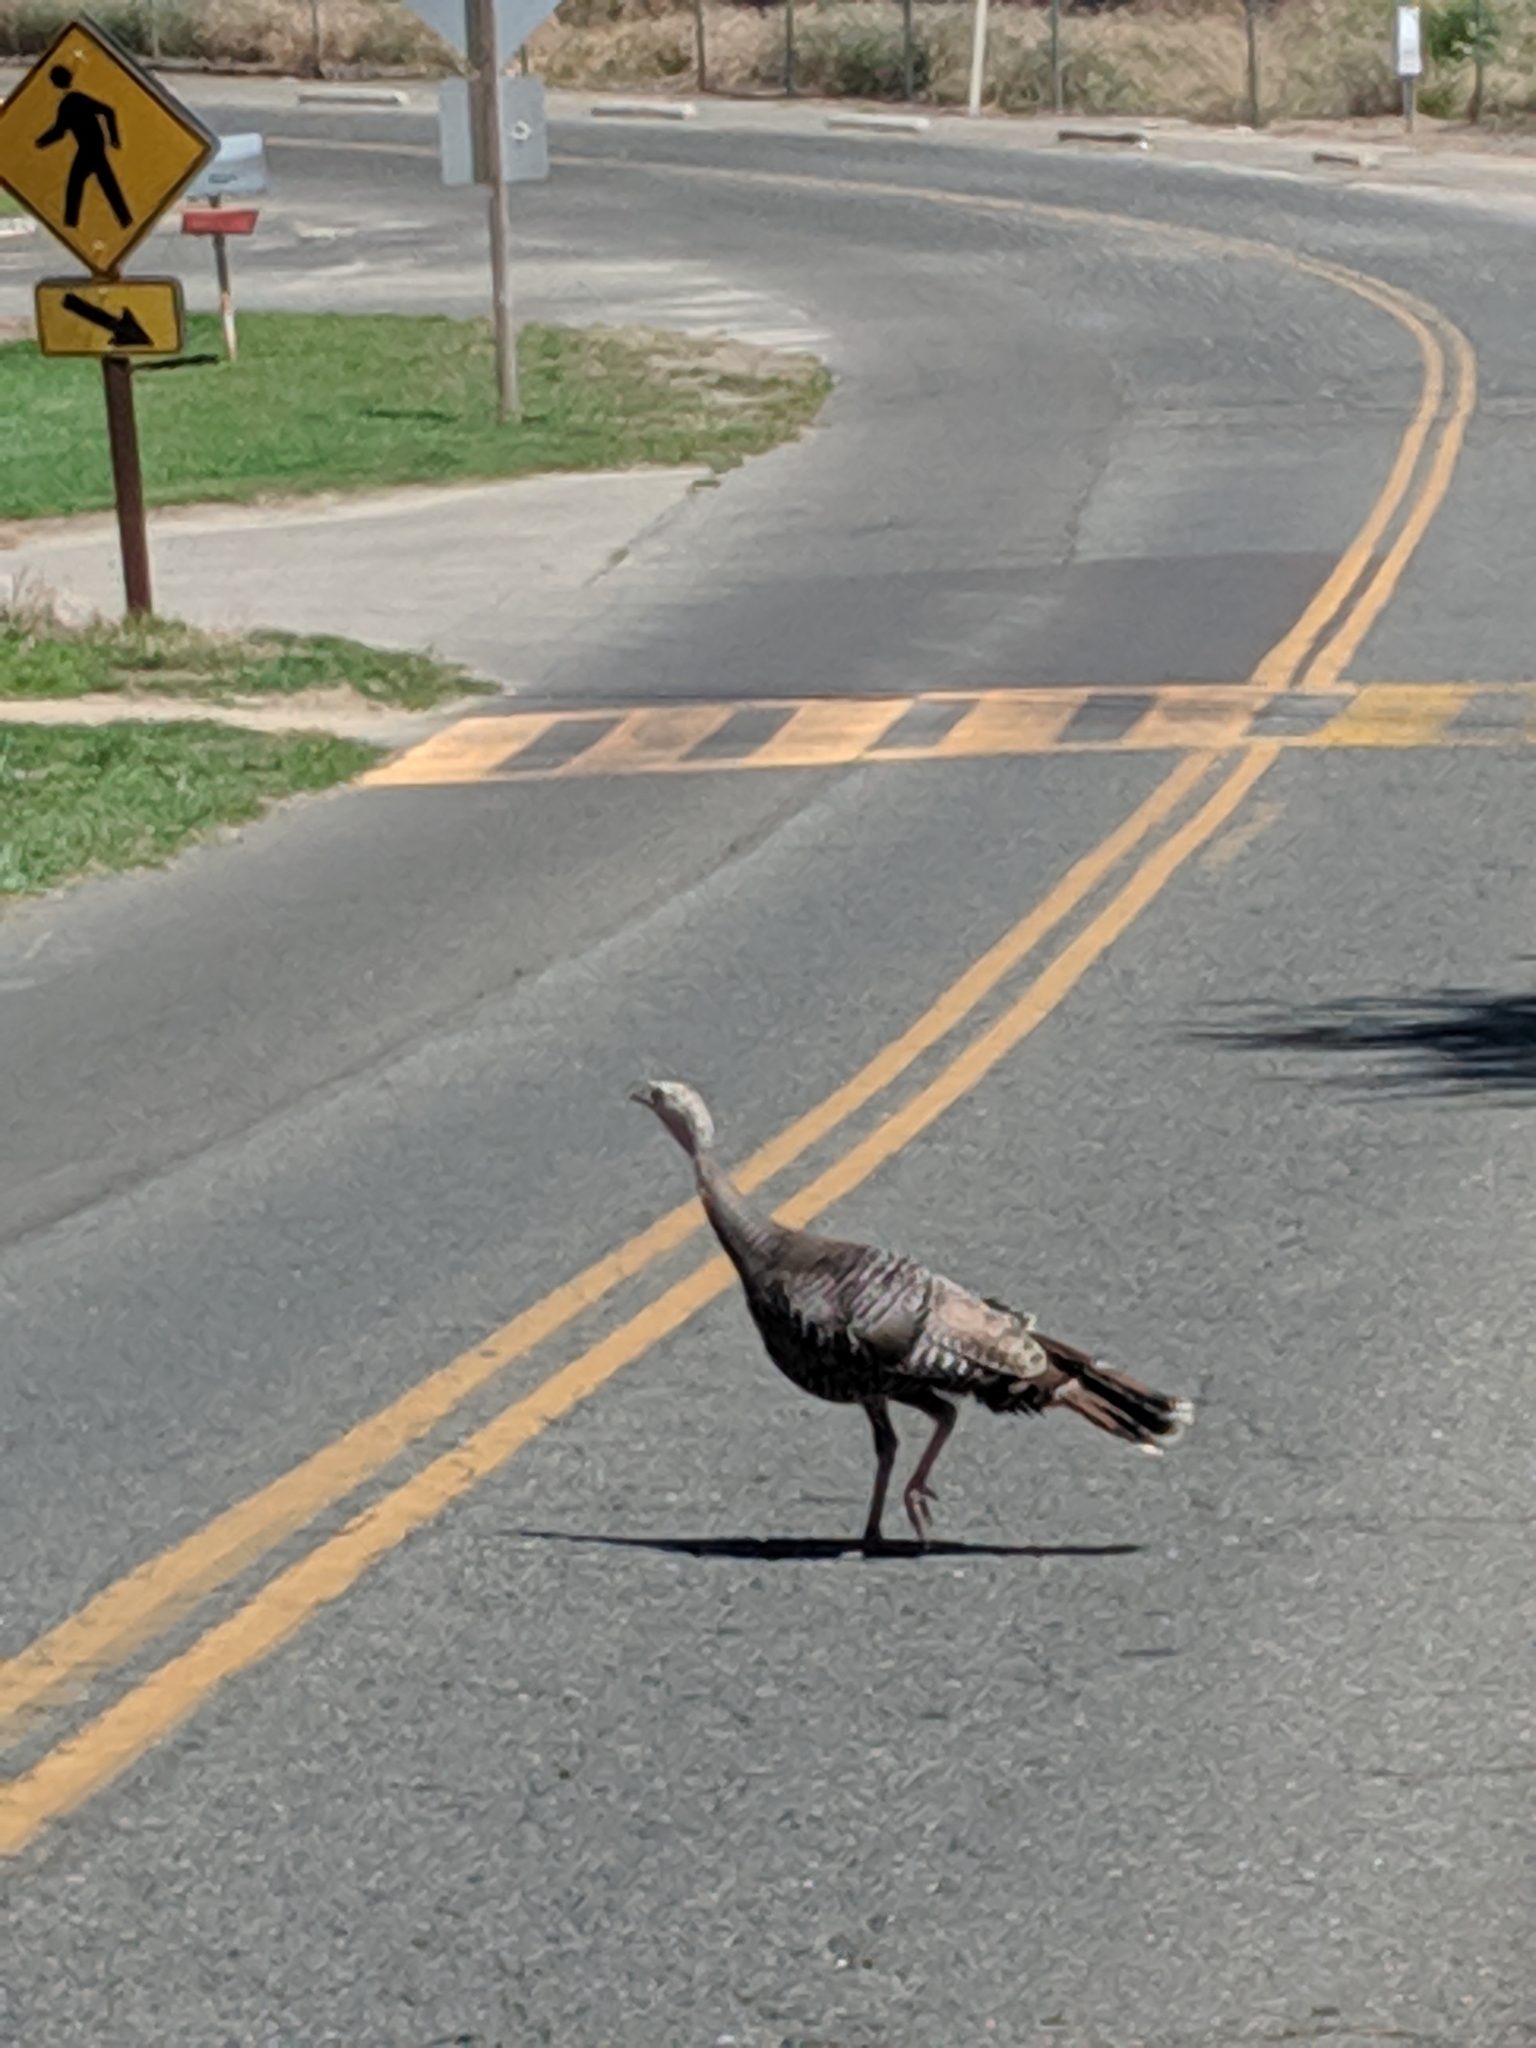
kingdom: Animalia
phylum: Chordata
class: Aves
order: Galliformes
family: Phasianidae
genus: Meleagris
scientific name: Meleagris gallopavo
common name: Wild turkey
